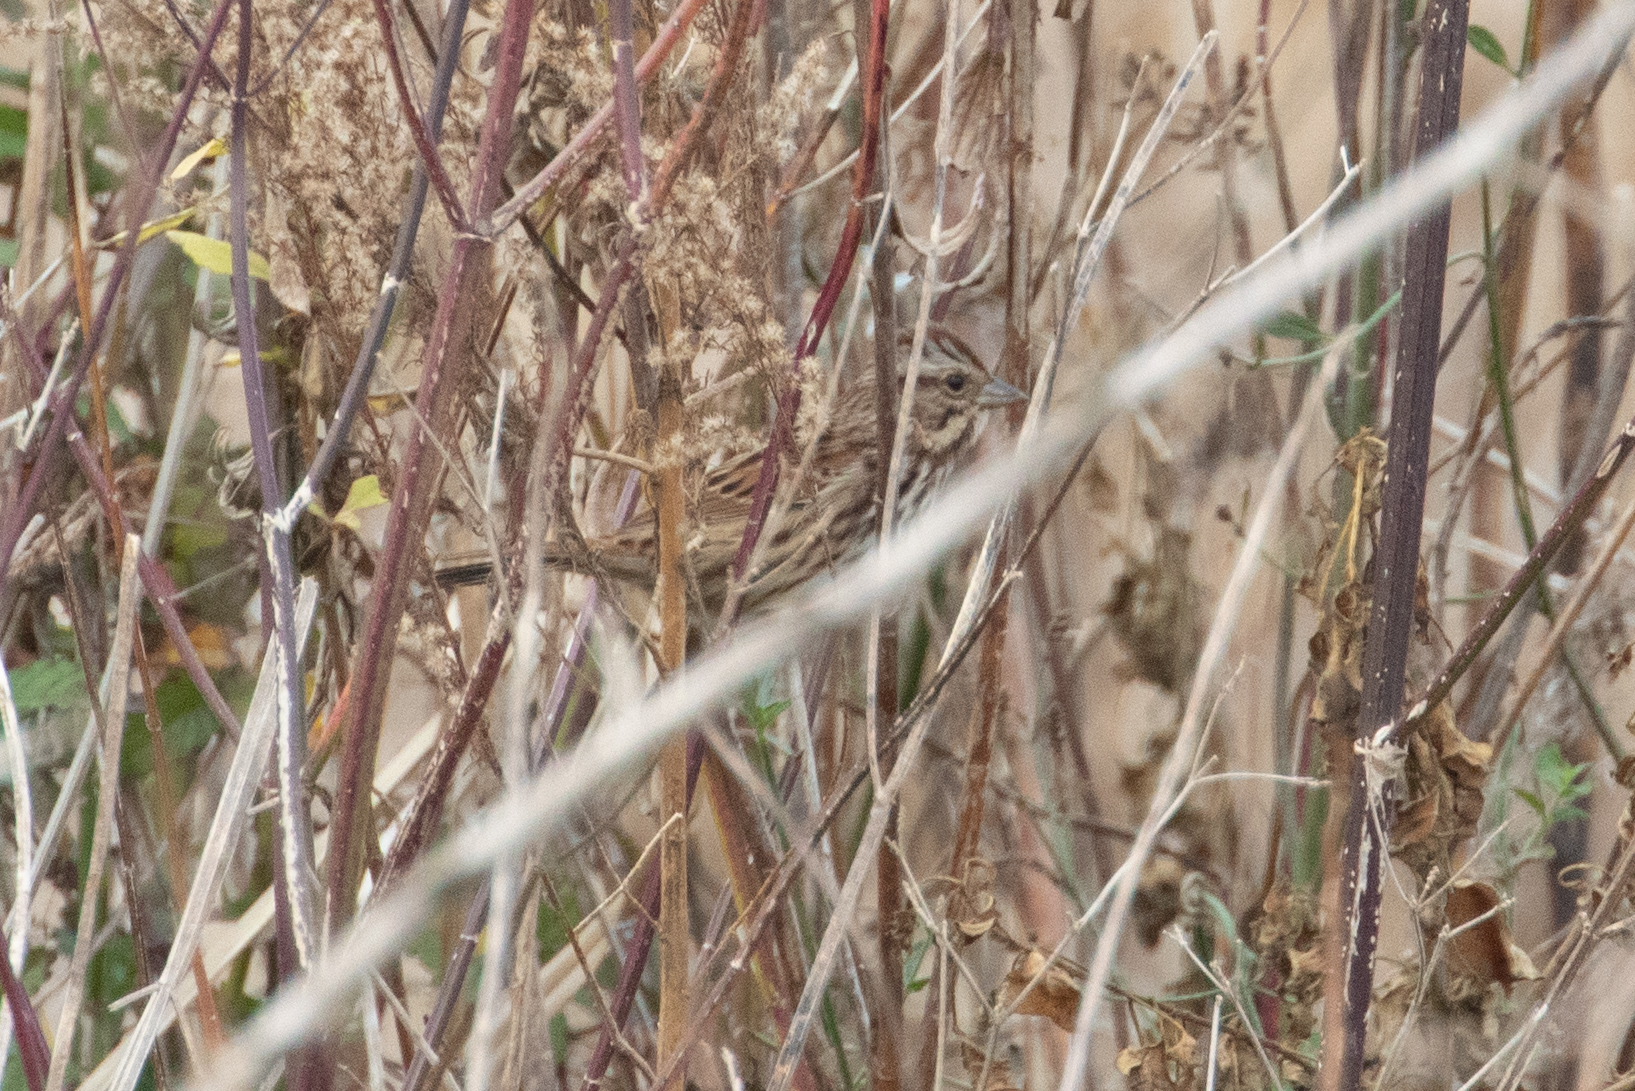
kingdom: Animalia
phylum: Chordata
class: Aves
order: Passeriformes
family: Passerellidae
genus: Melospiza
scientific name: Melospiza melodia
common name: Song sparrow
